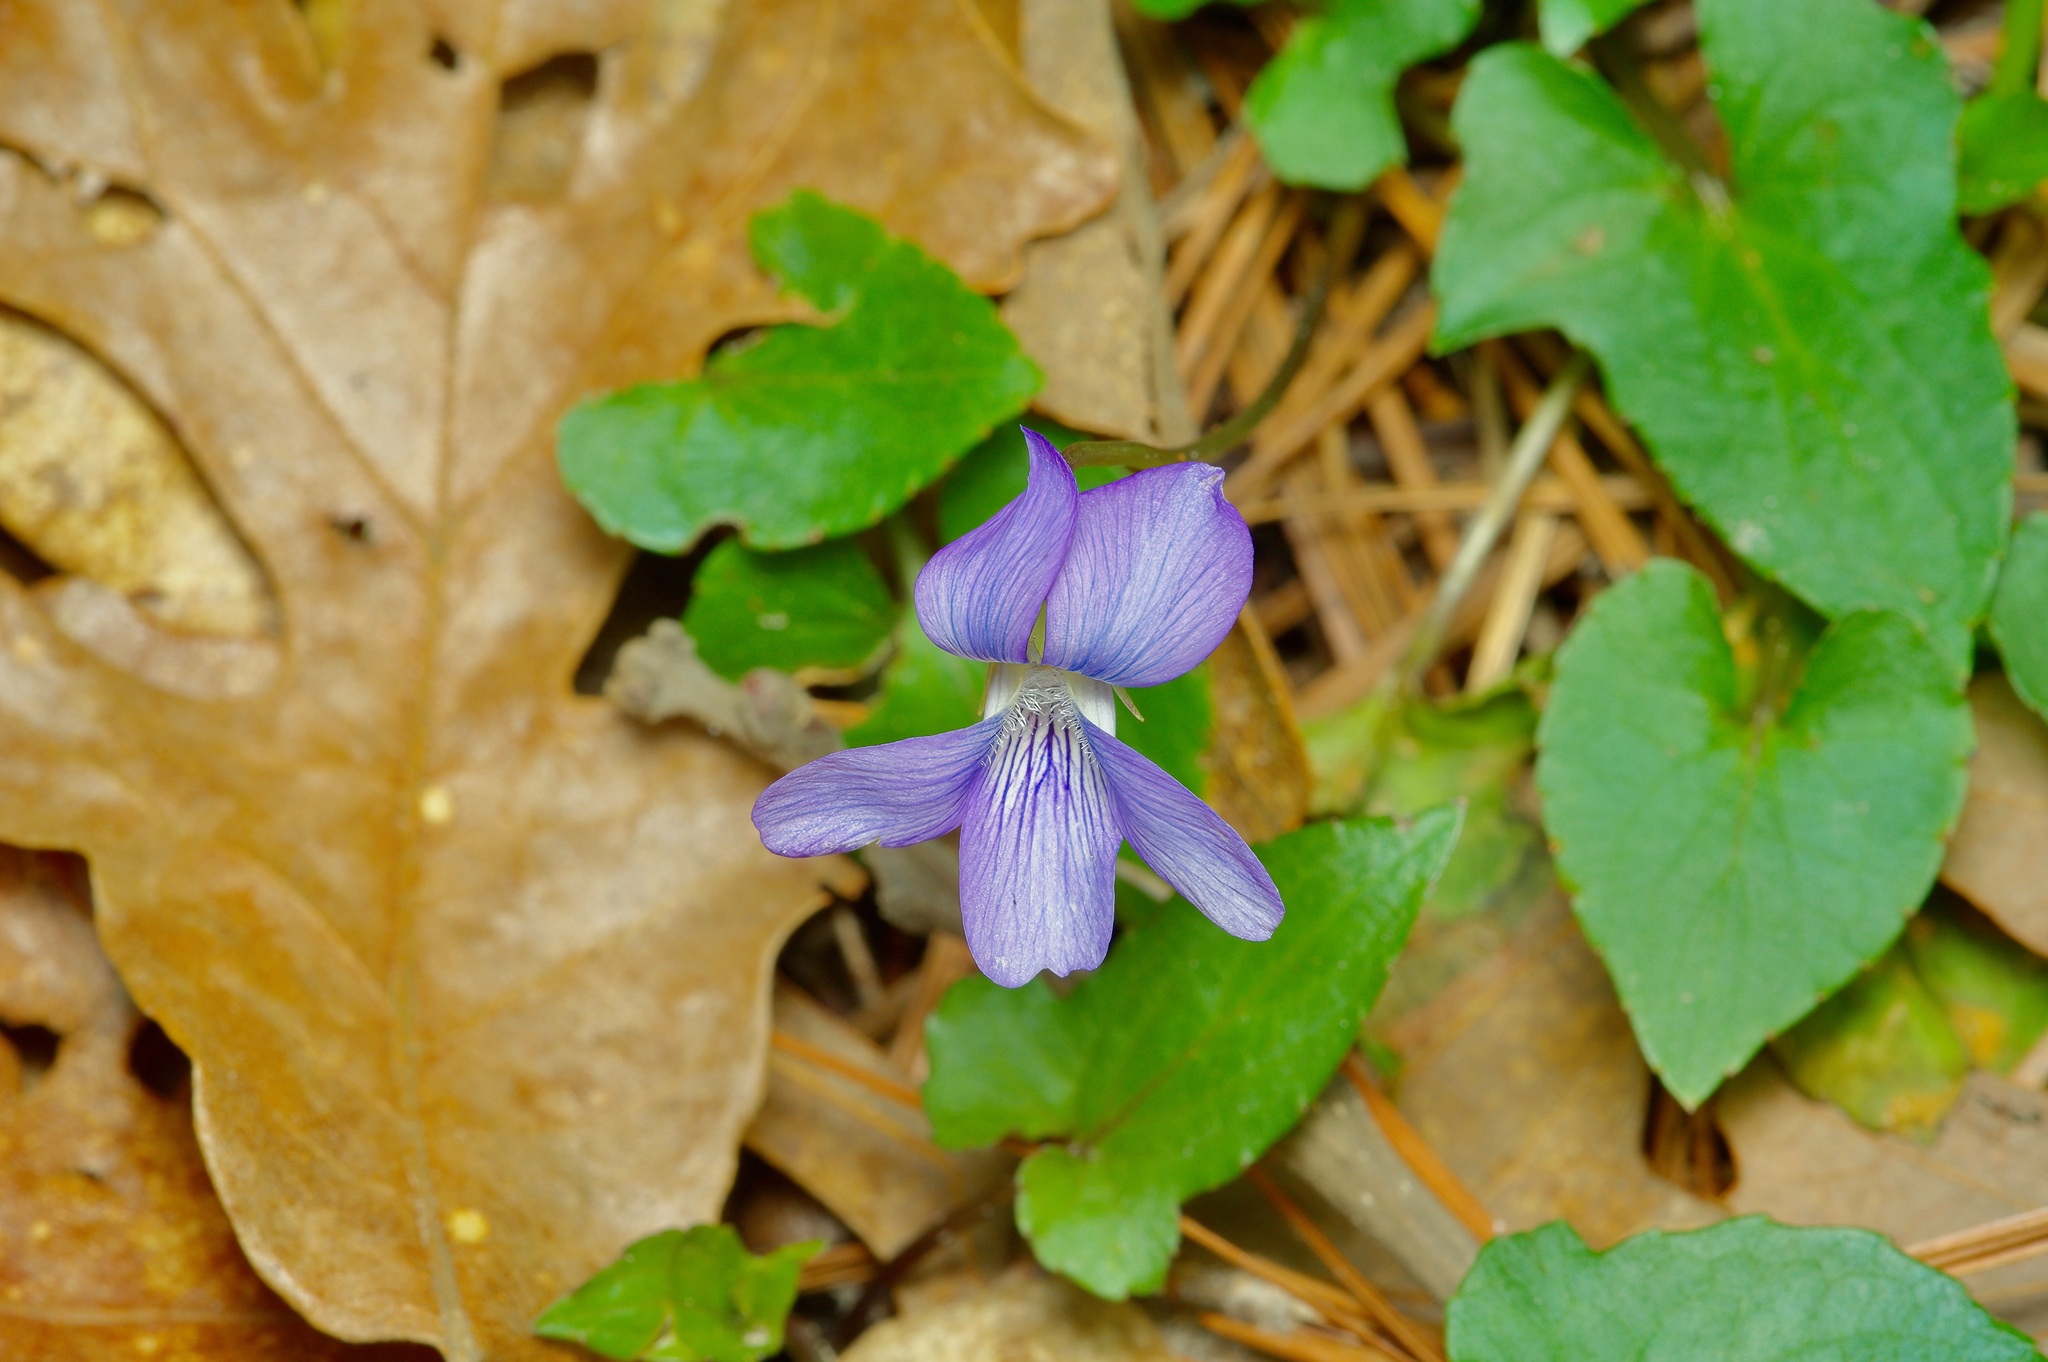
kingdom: Plantae
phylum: Tracheophyta
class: Magnoliopsida
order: Malpighiales
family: Violaceae
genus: Viola
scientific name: Viola palmata
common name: Early blue violet
